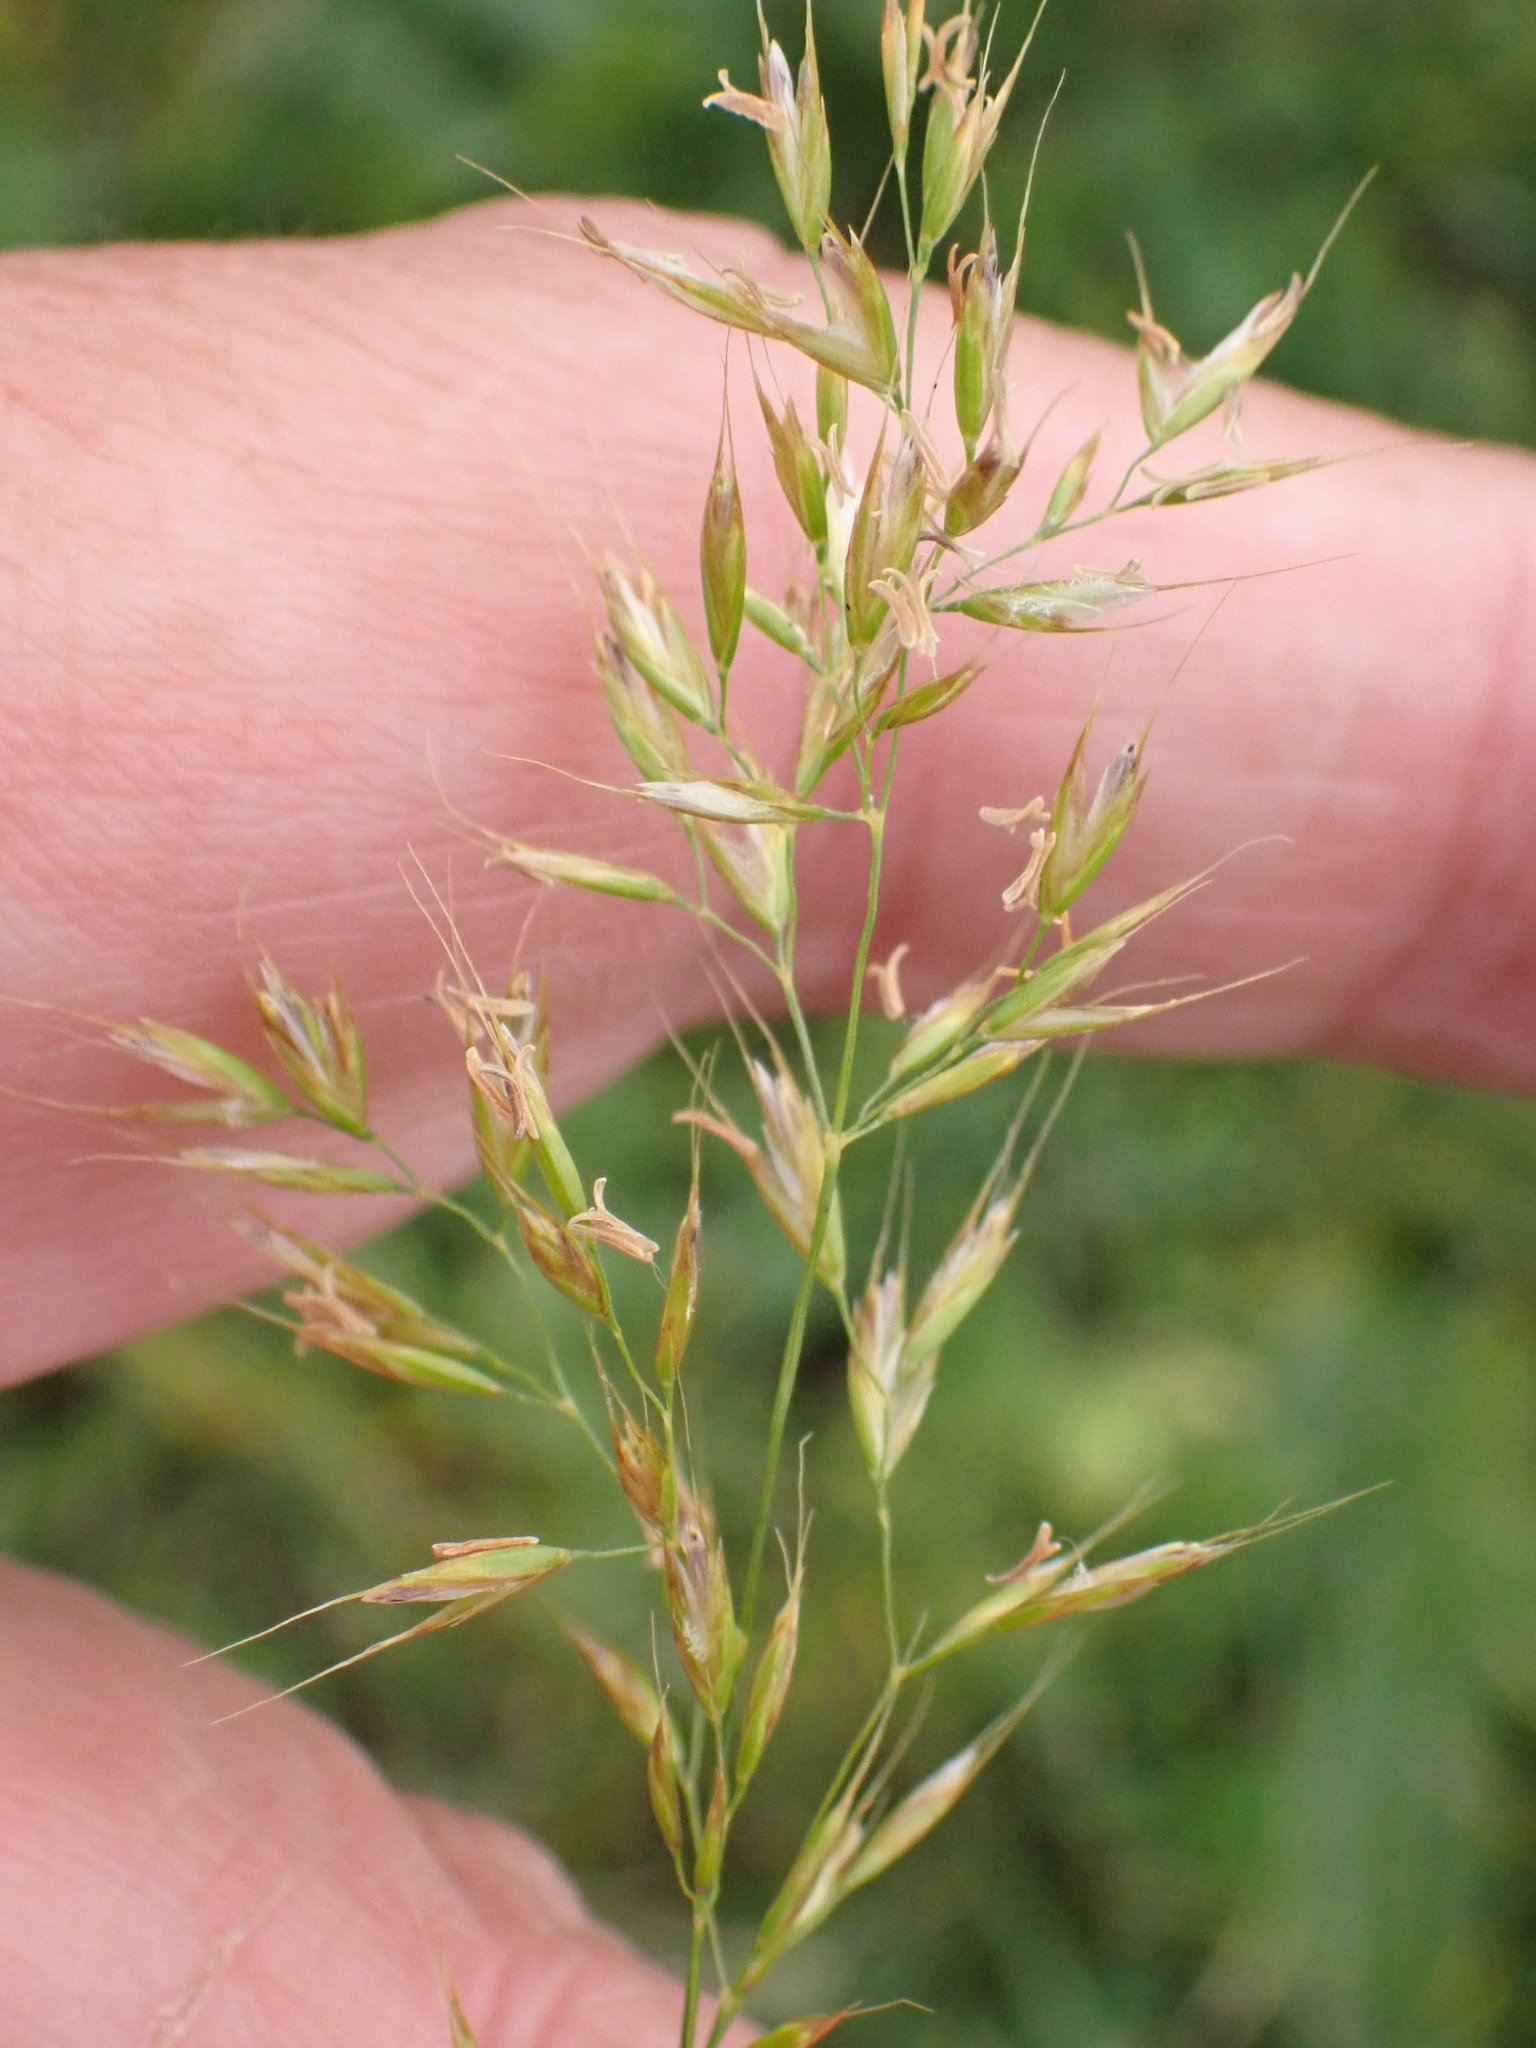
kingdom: Plantae
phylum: Tracheophyta
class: Liliopsida
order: Poales
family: Poaceae
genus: Trisetum
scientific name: Trisetum flavescens
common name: Yellow oat-grass
